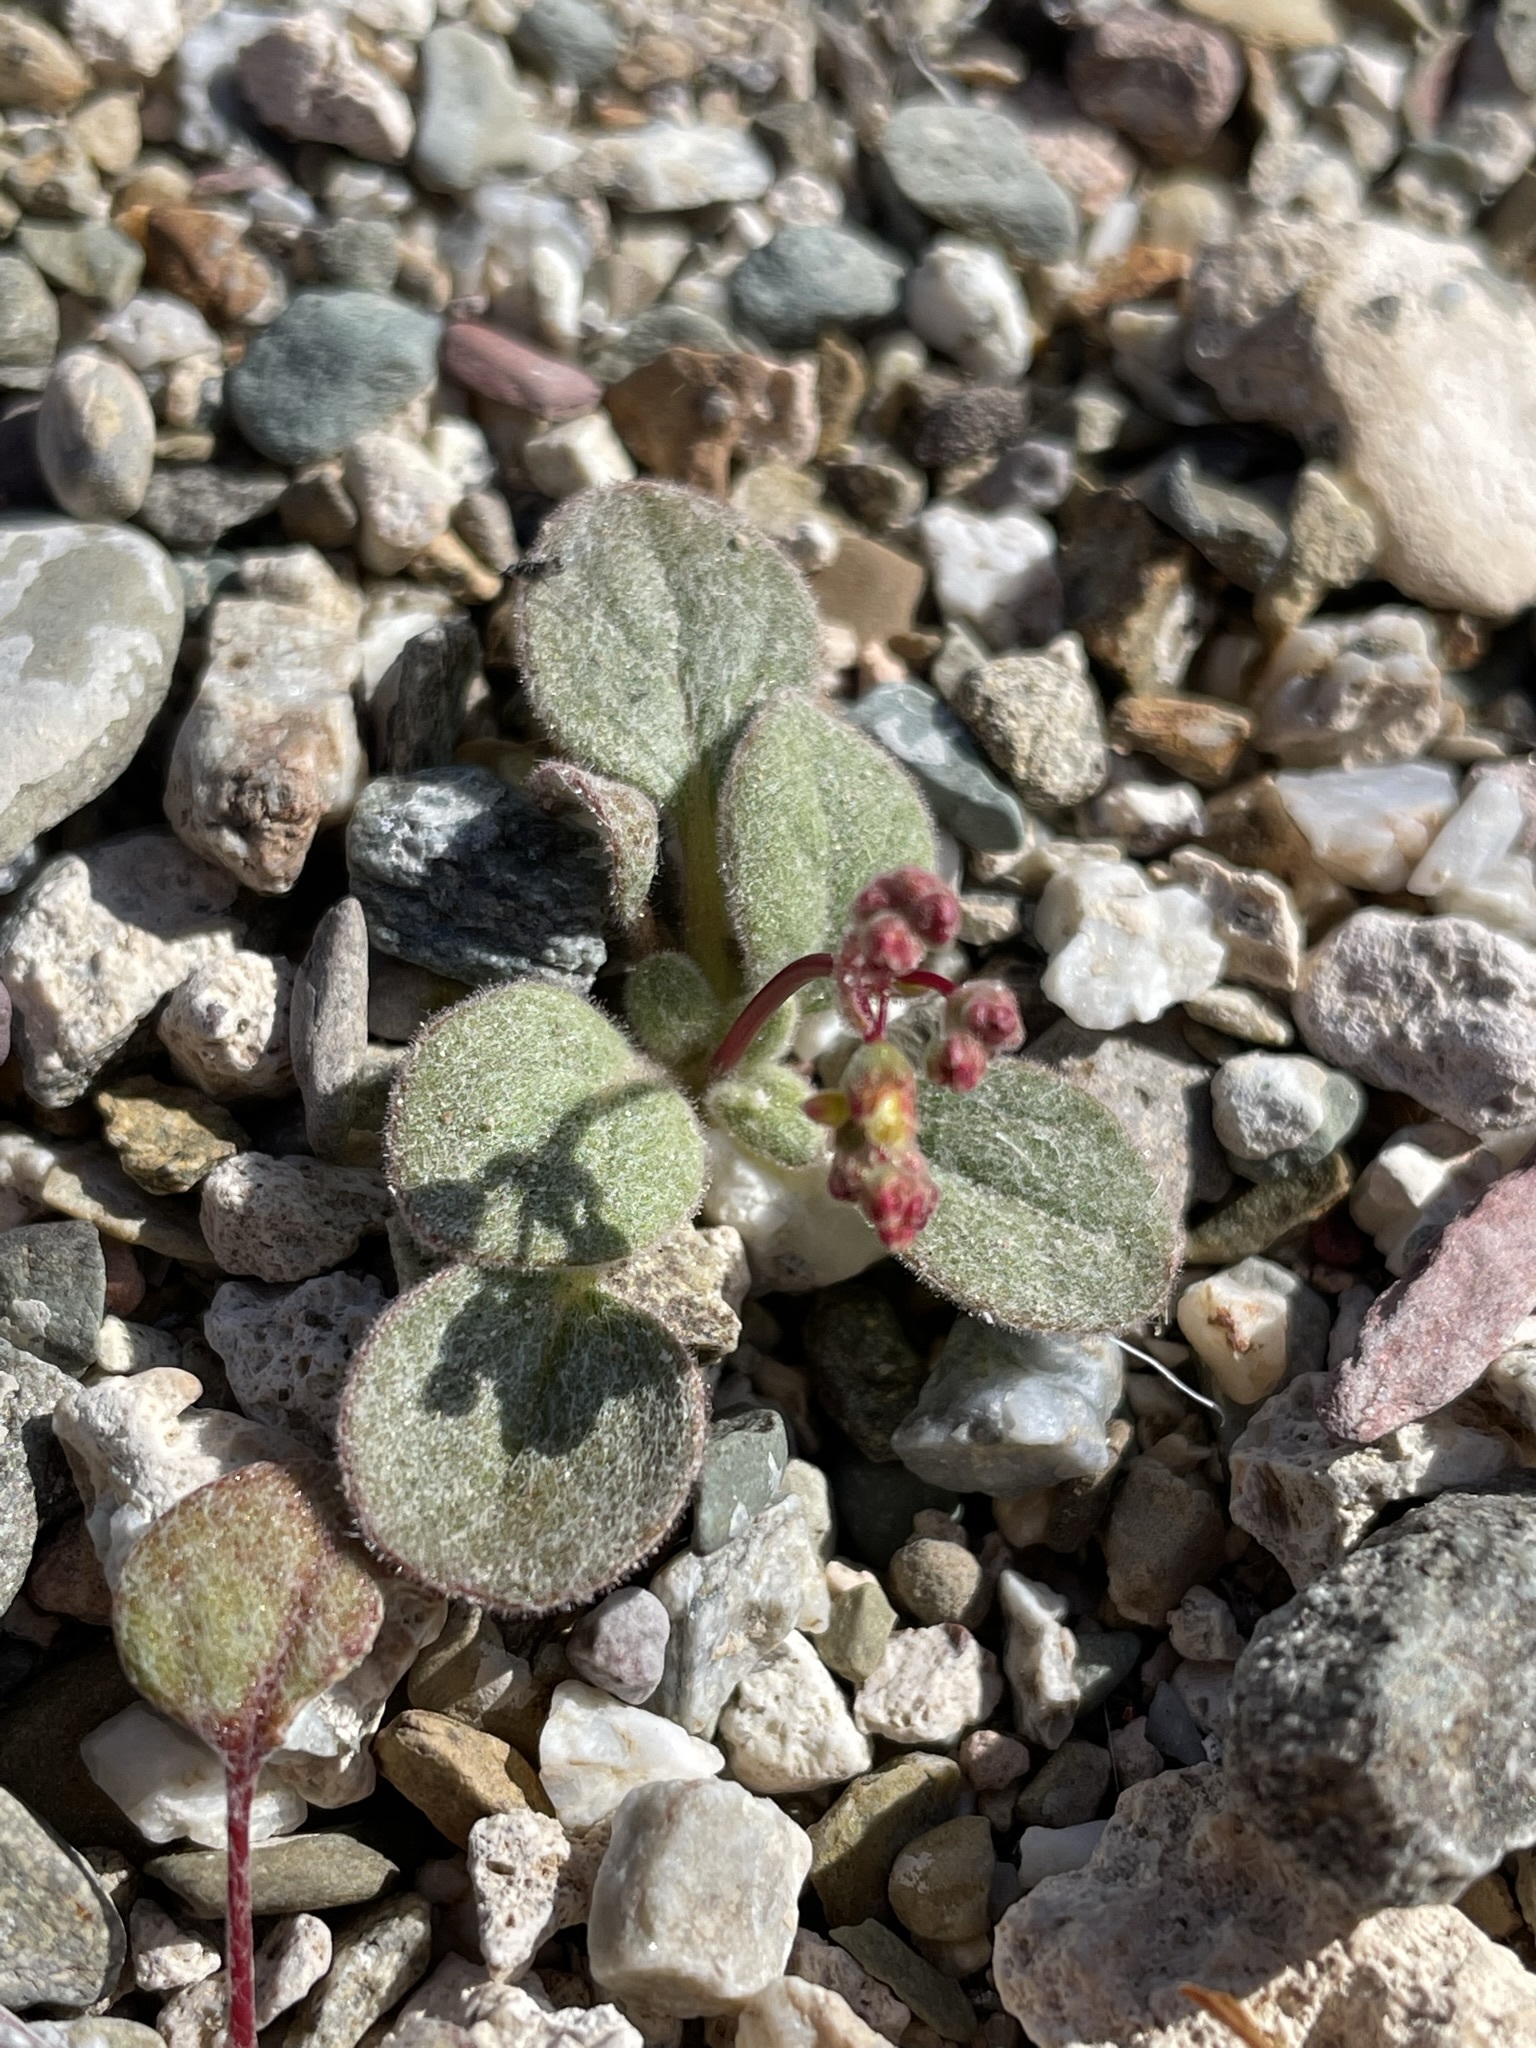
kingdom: Plantae
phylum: Tracheophyta
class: Magnoliopsida
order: Caryophyllales
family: Polygonaceae
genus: Eriogonum
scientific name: Eriogonum pusillum
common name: Yellow turbans
